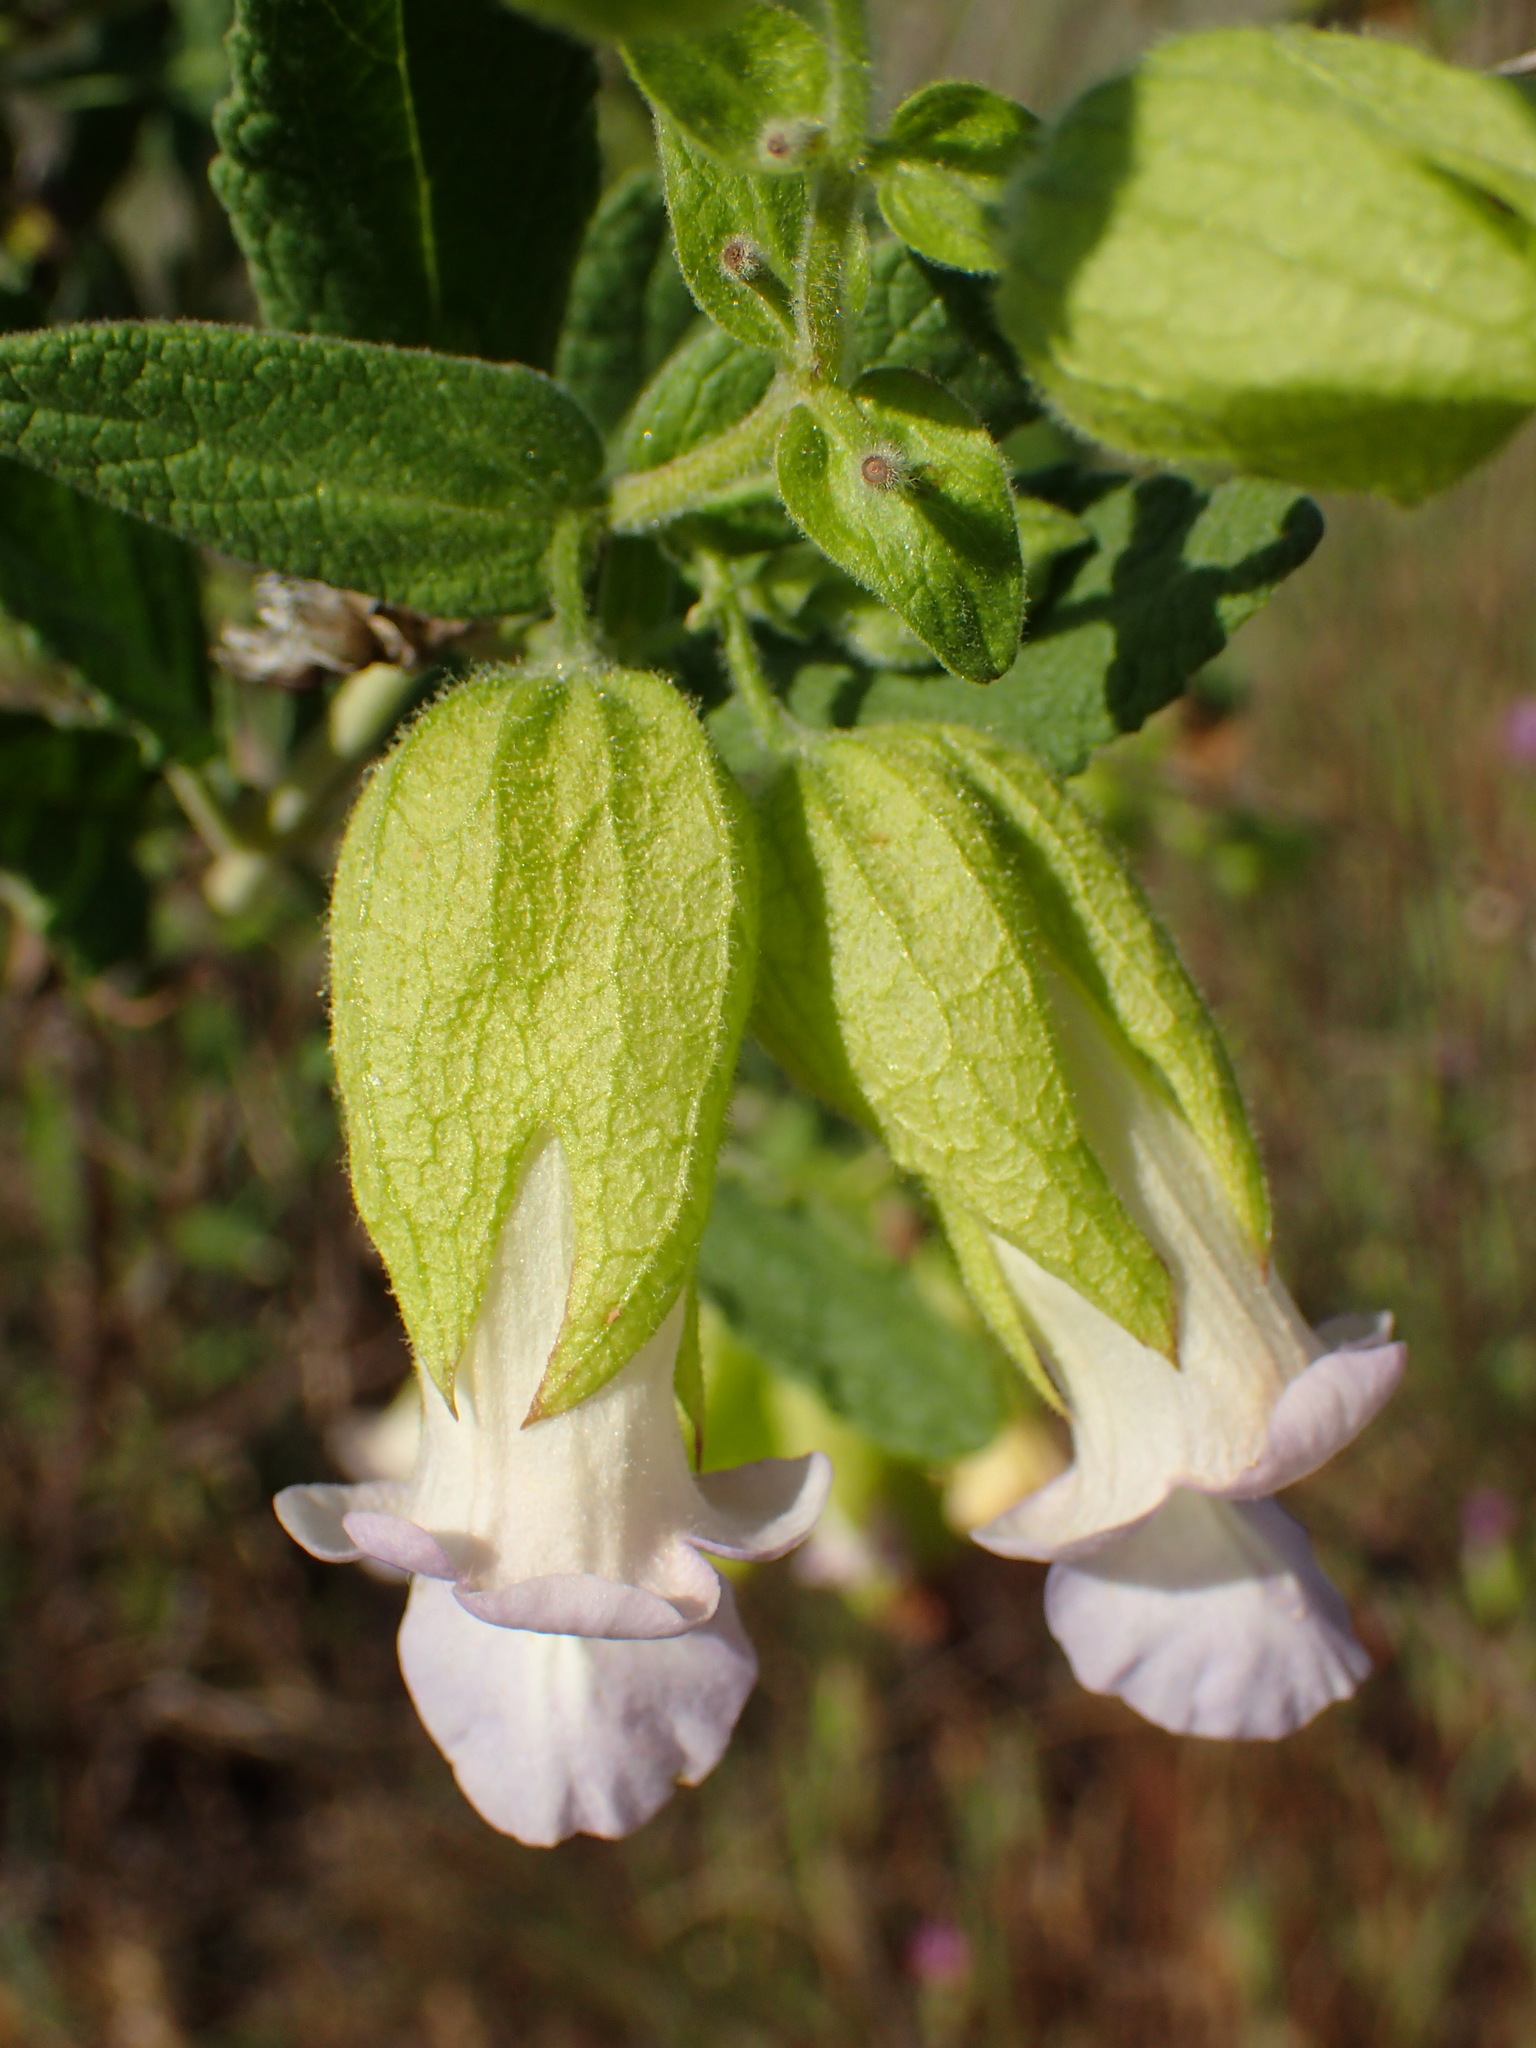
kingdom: Plantae
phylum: Tracheophyta
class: Magnoliopsida
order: Lamiales
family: Lamiaceae
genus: Lepechinia
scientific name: Lepechinia calycina
